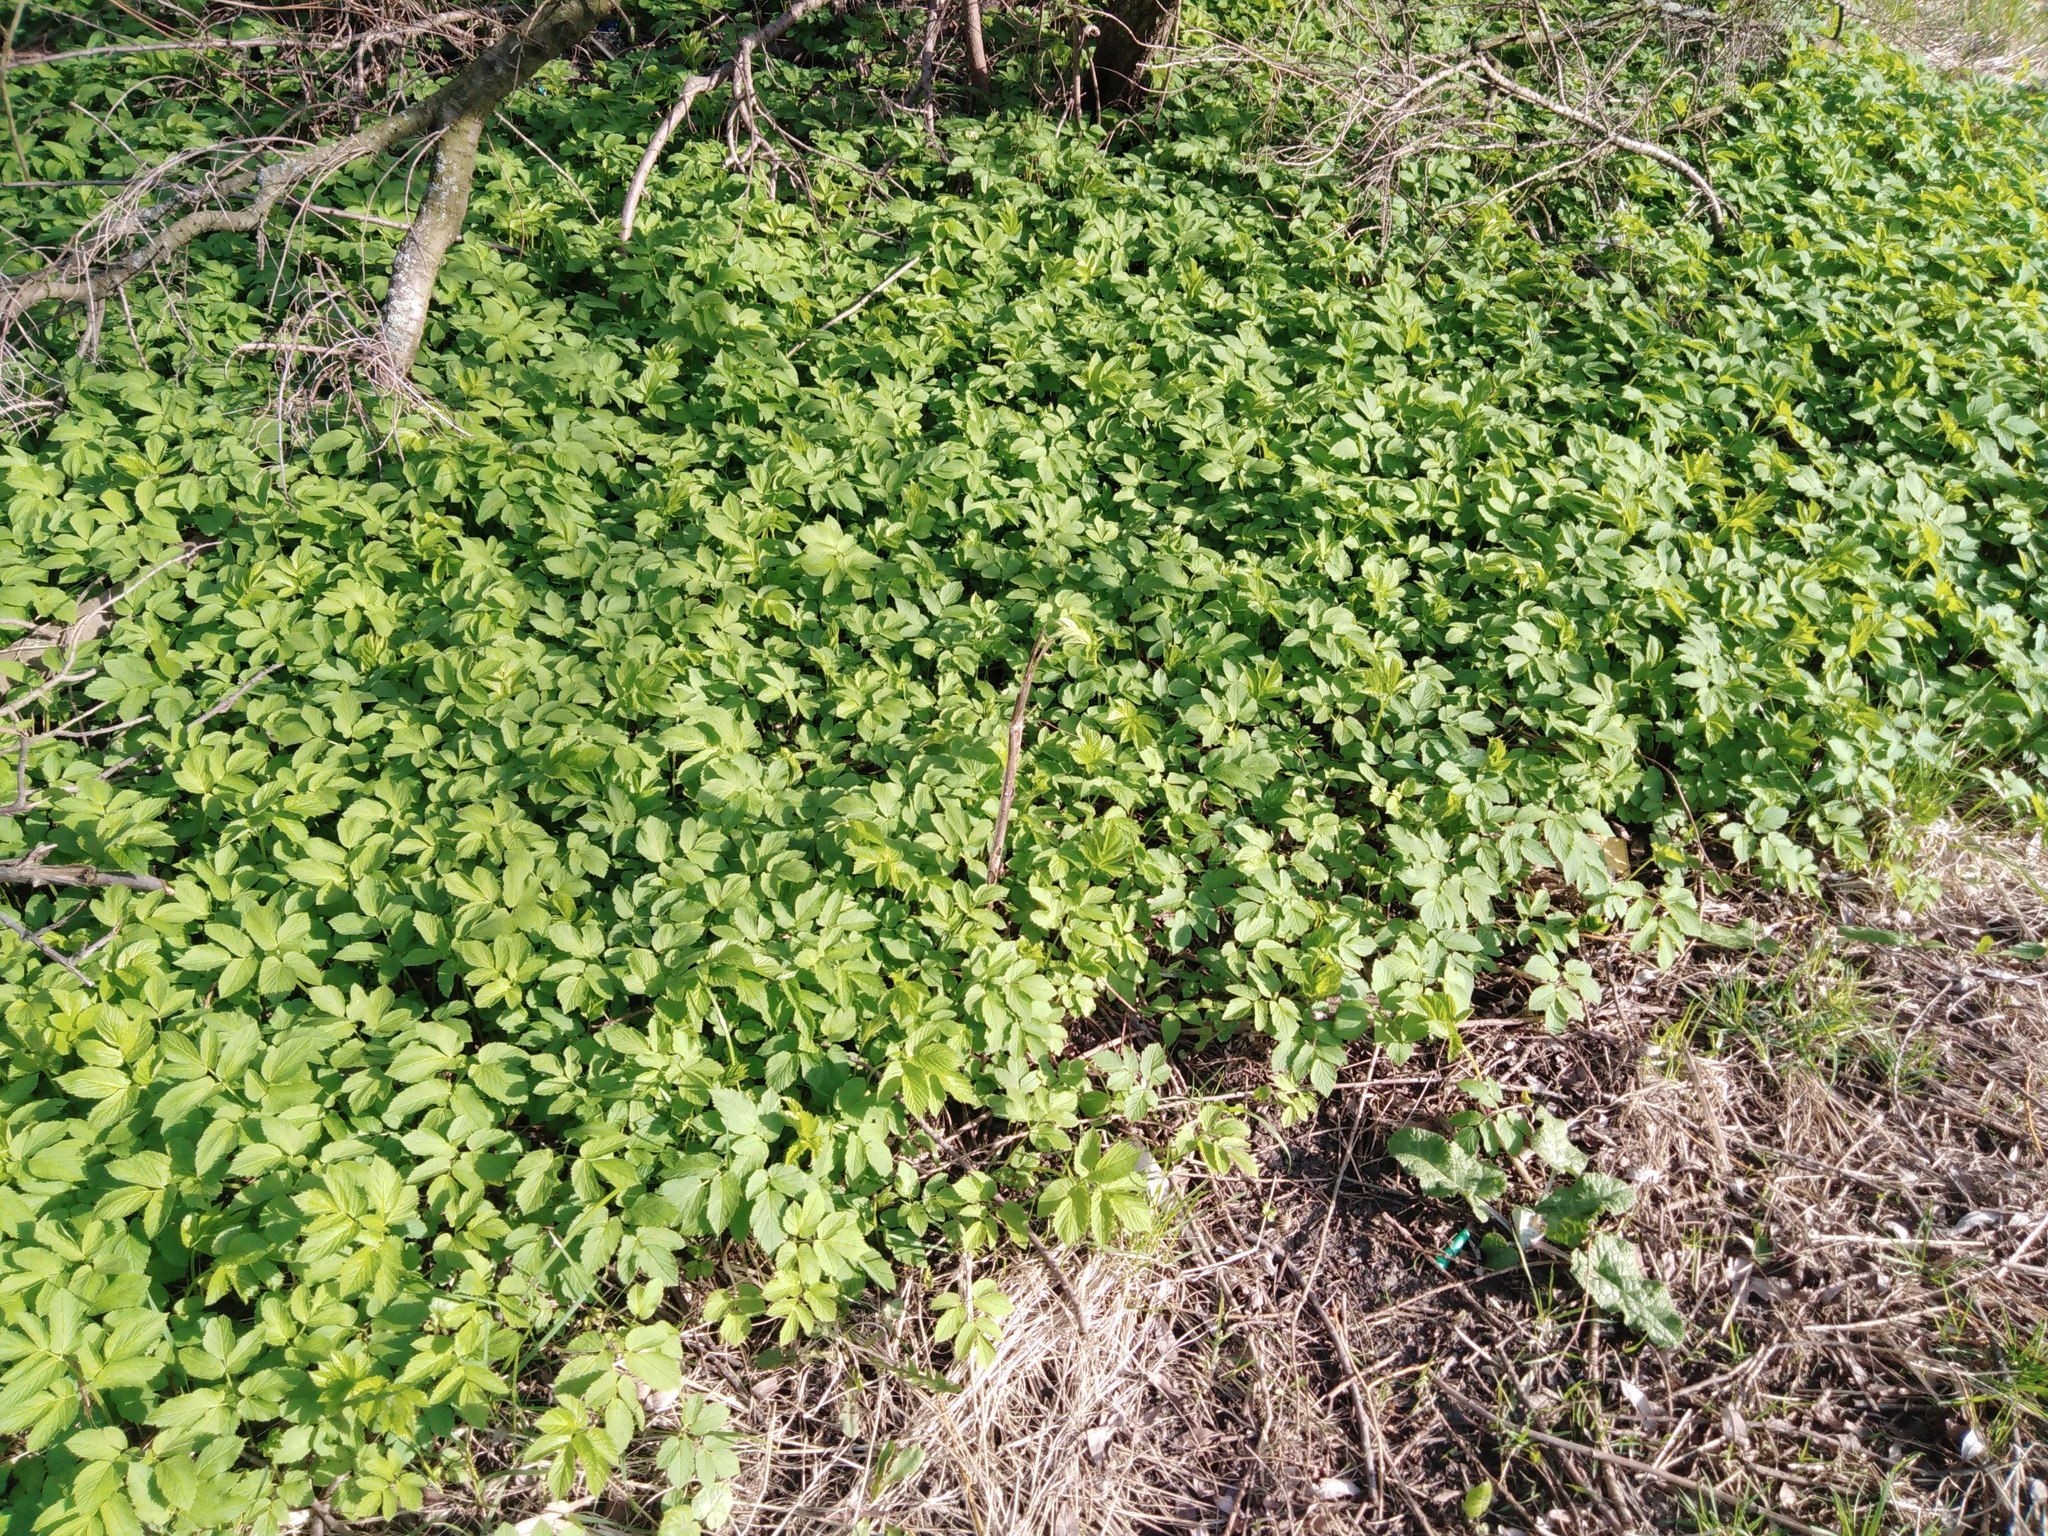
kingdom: Plantae
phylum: Tracheophyta
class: Magnoliopsida
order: Apiales
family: Apiaceae
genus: Aegopodium
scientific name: Aegopodium podagraria
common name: Ground-elder
